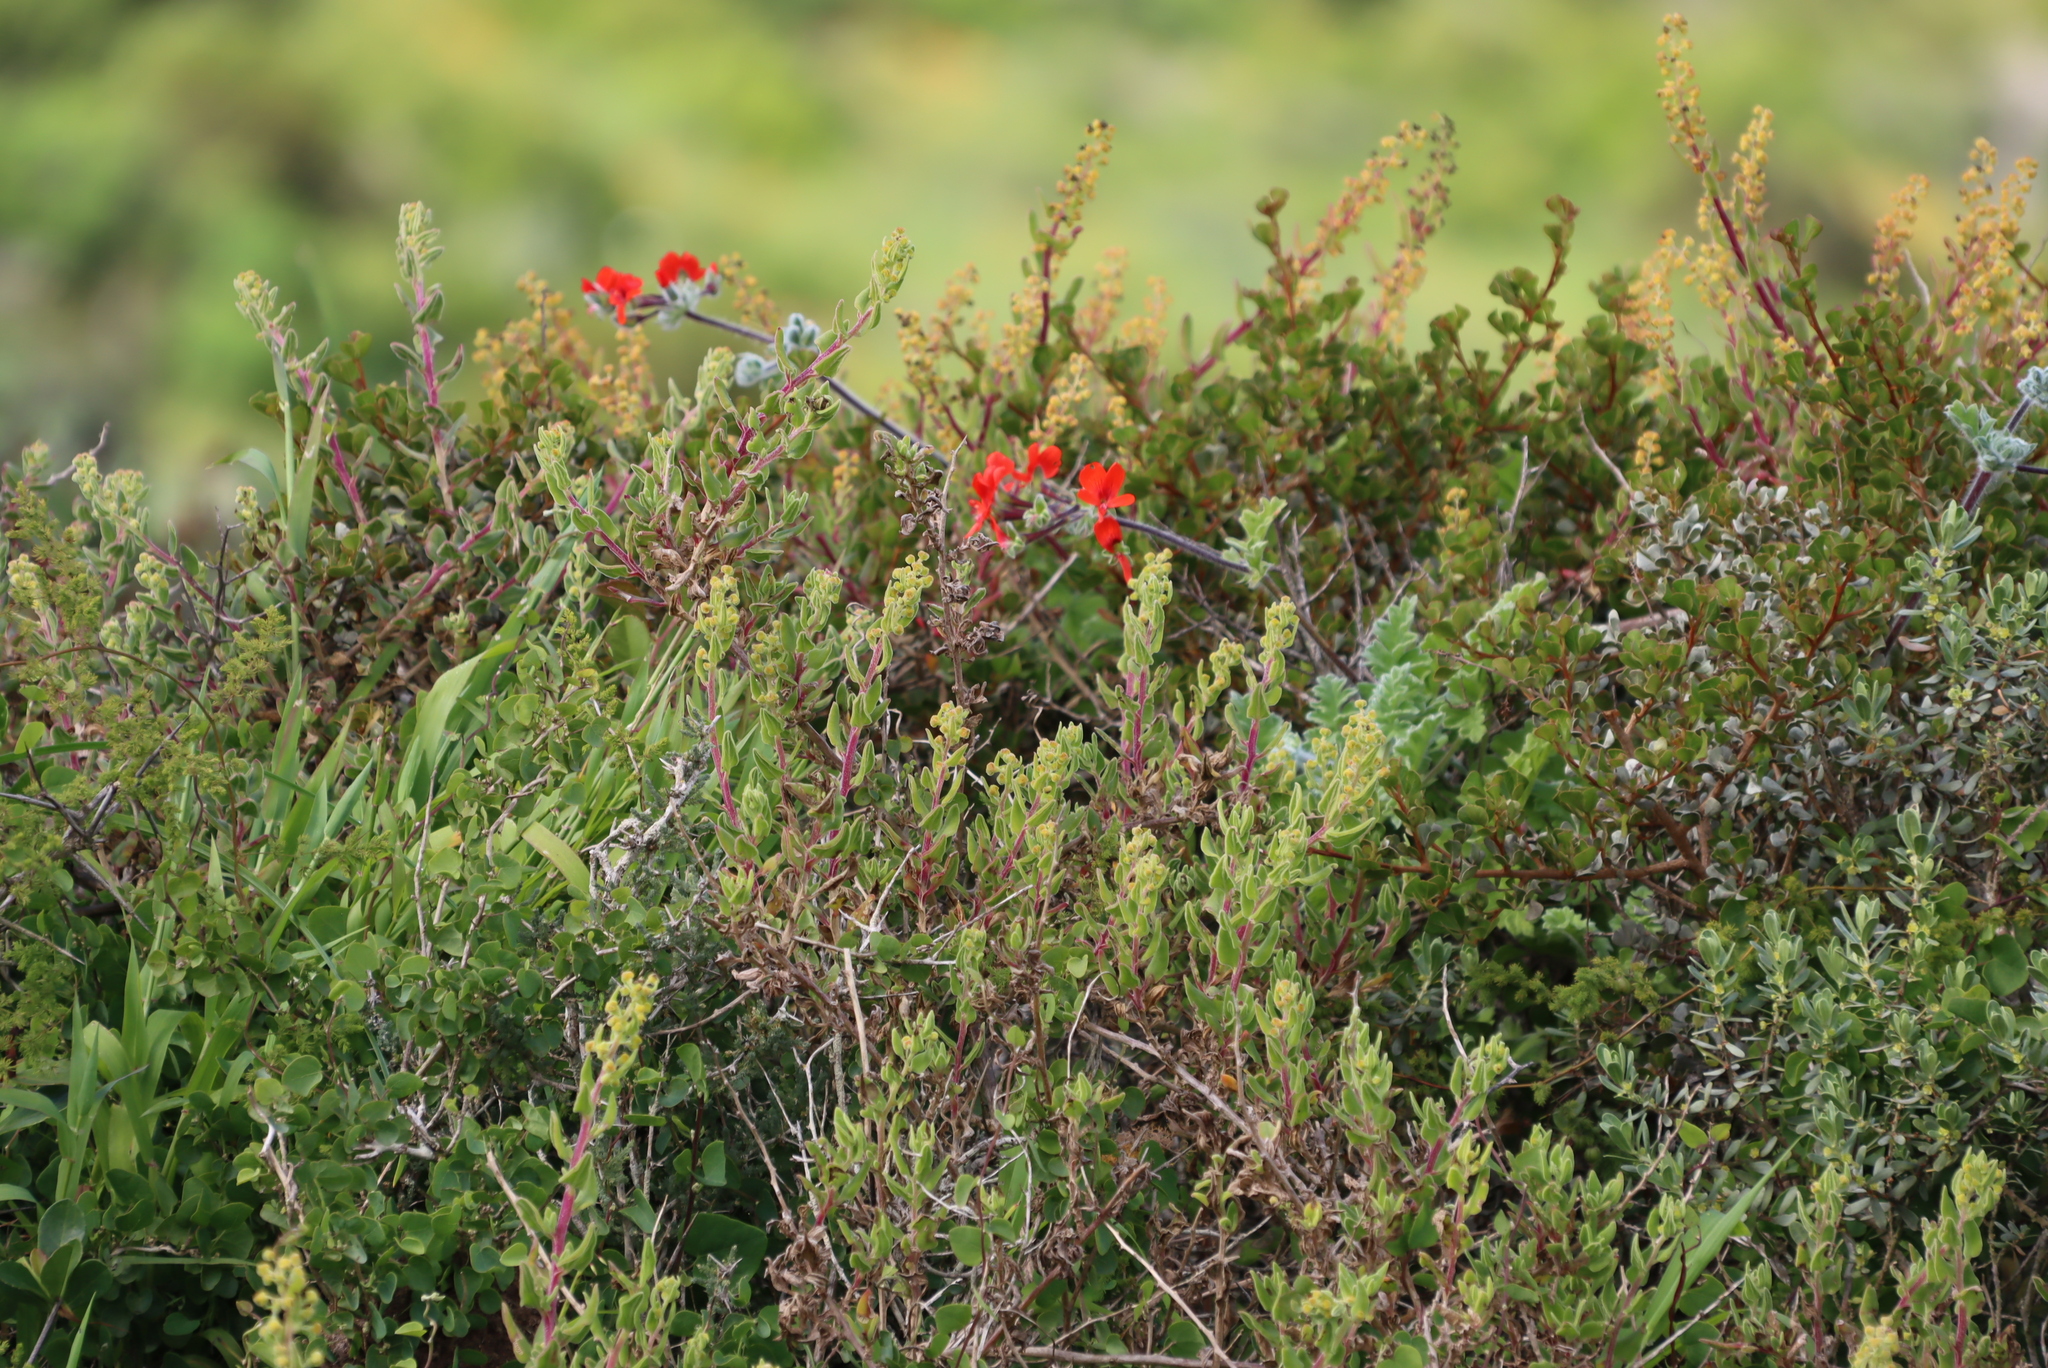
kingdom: Plantae
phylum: Tracheophyta
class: Magnoliopsida
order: Geraniales
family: Geraniaceae
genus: Pelargonium
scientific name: Pelargonium fulgidum
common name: Celandine-leaf pelargonium
